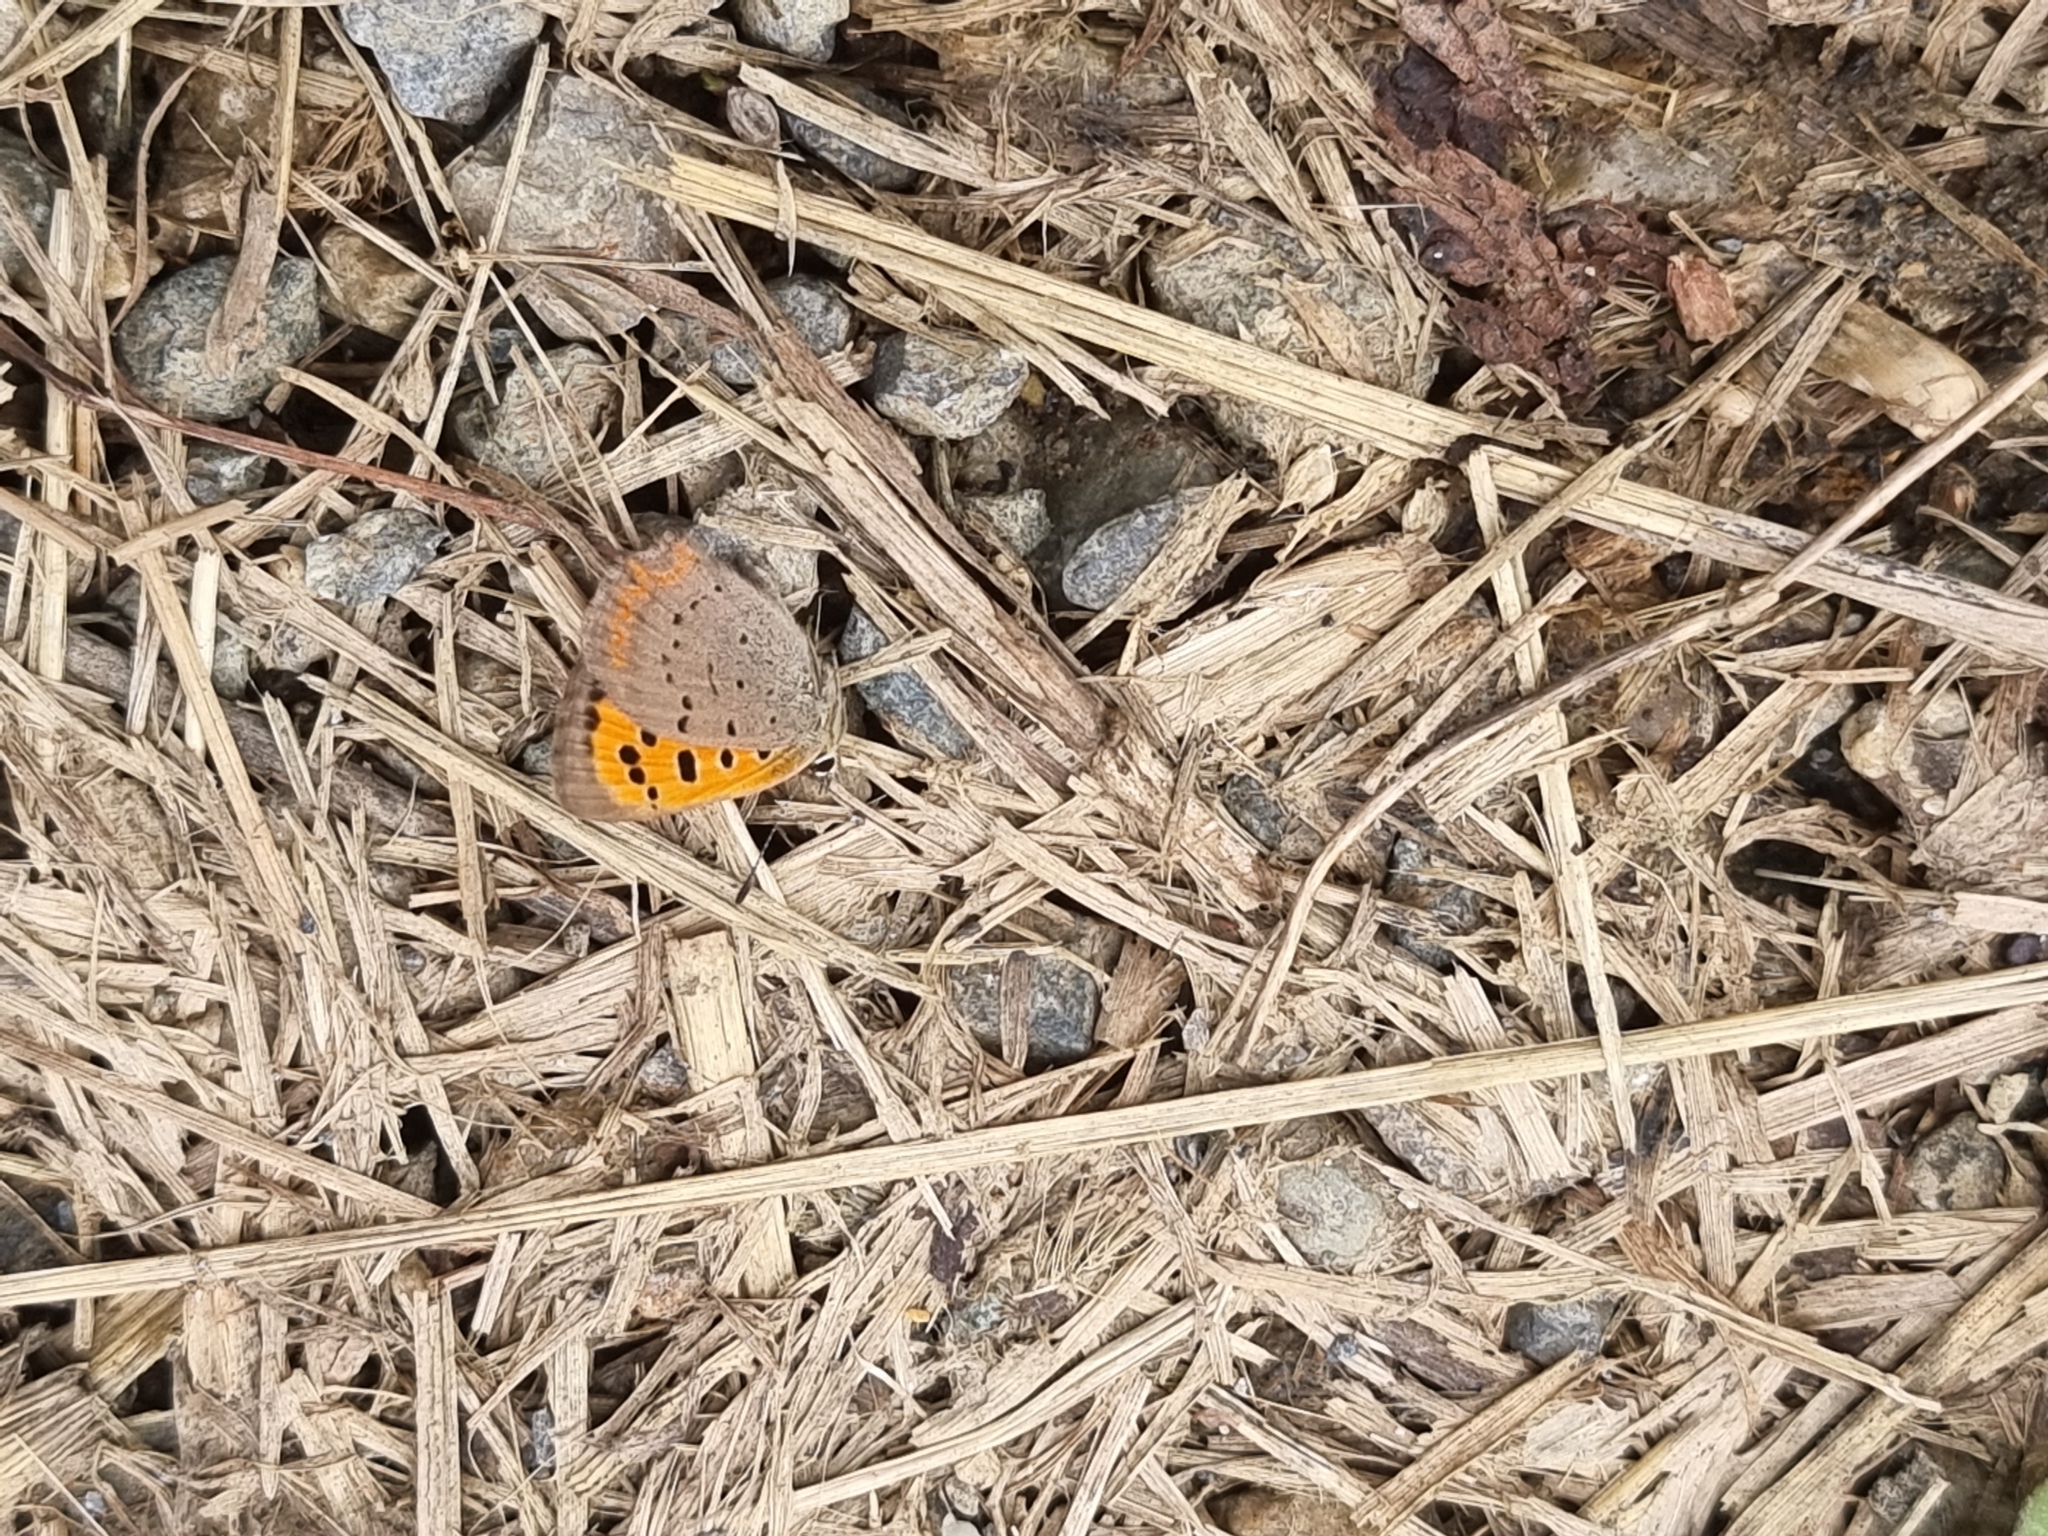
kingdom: Animalia
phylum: Arthropoda
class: Insecta
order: Lepidoptera
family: Lycaenidae
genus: Lycaena
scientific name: Lycaena phlaeas
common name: Small copper
